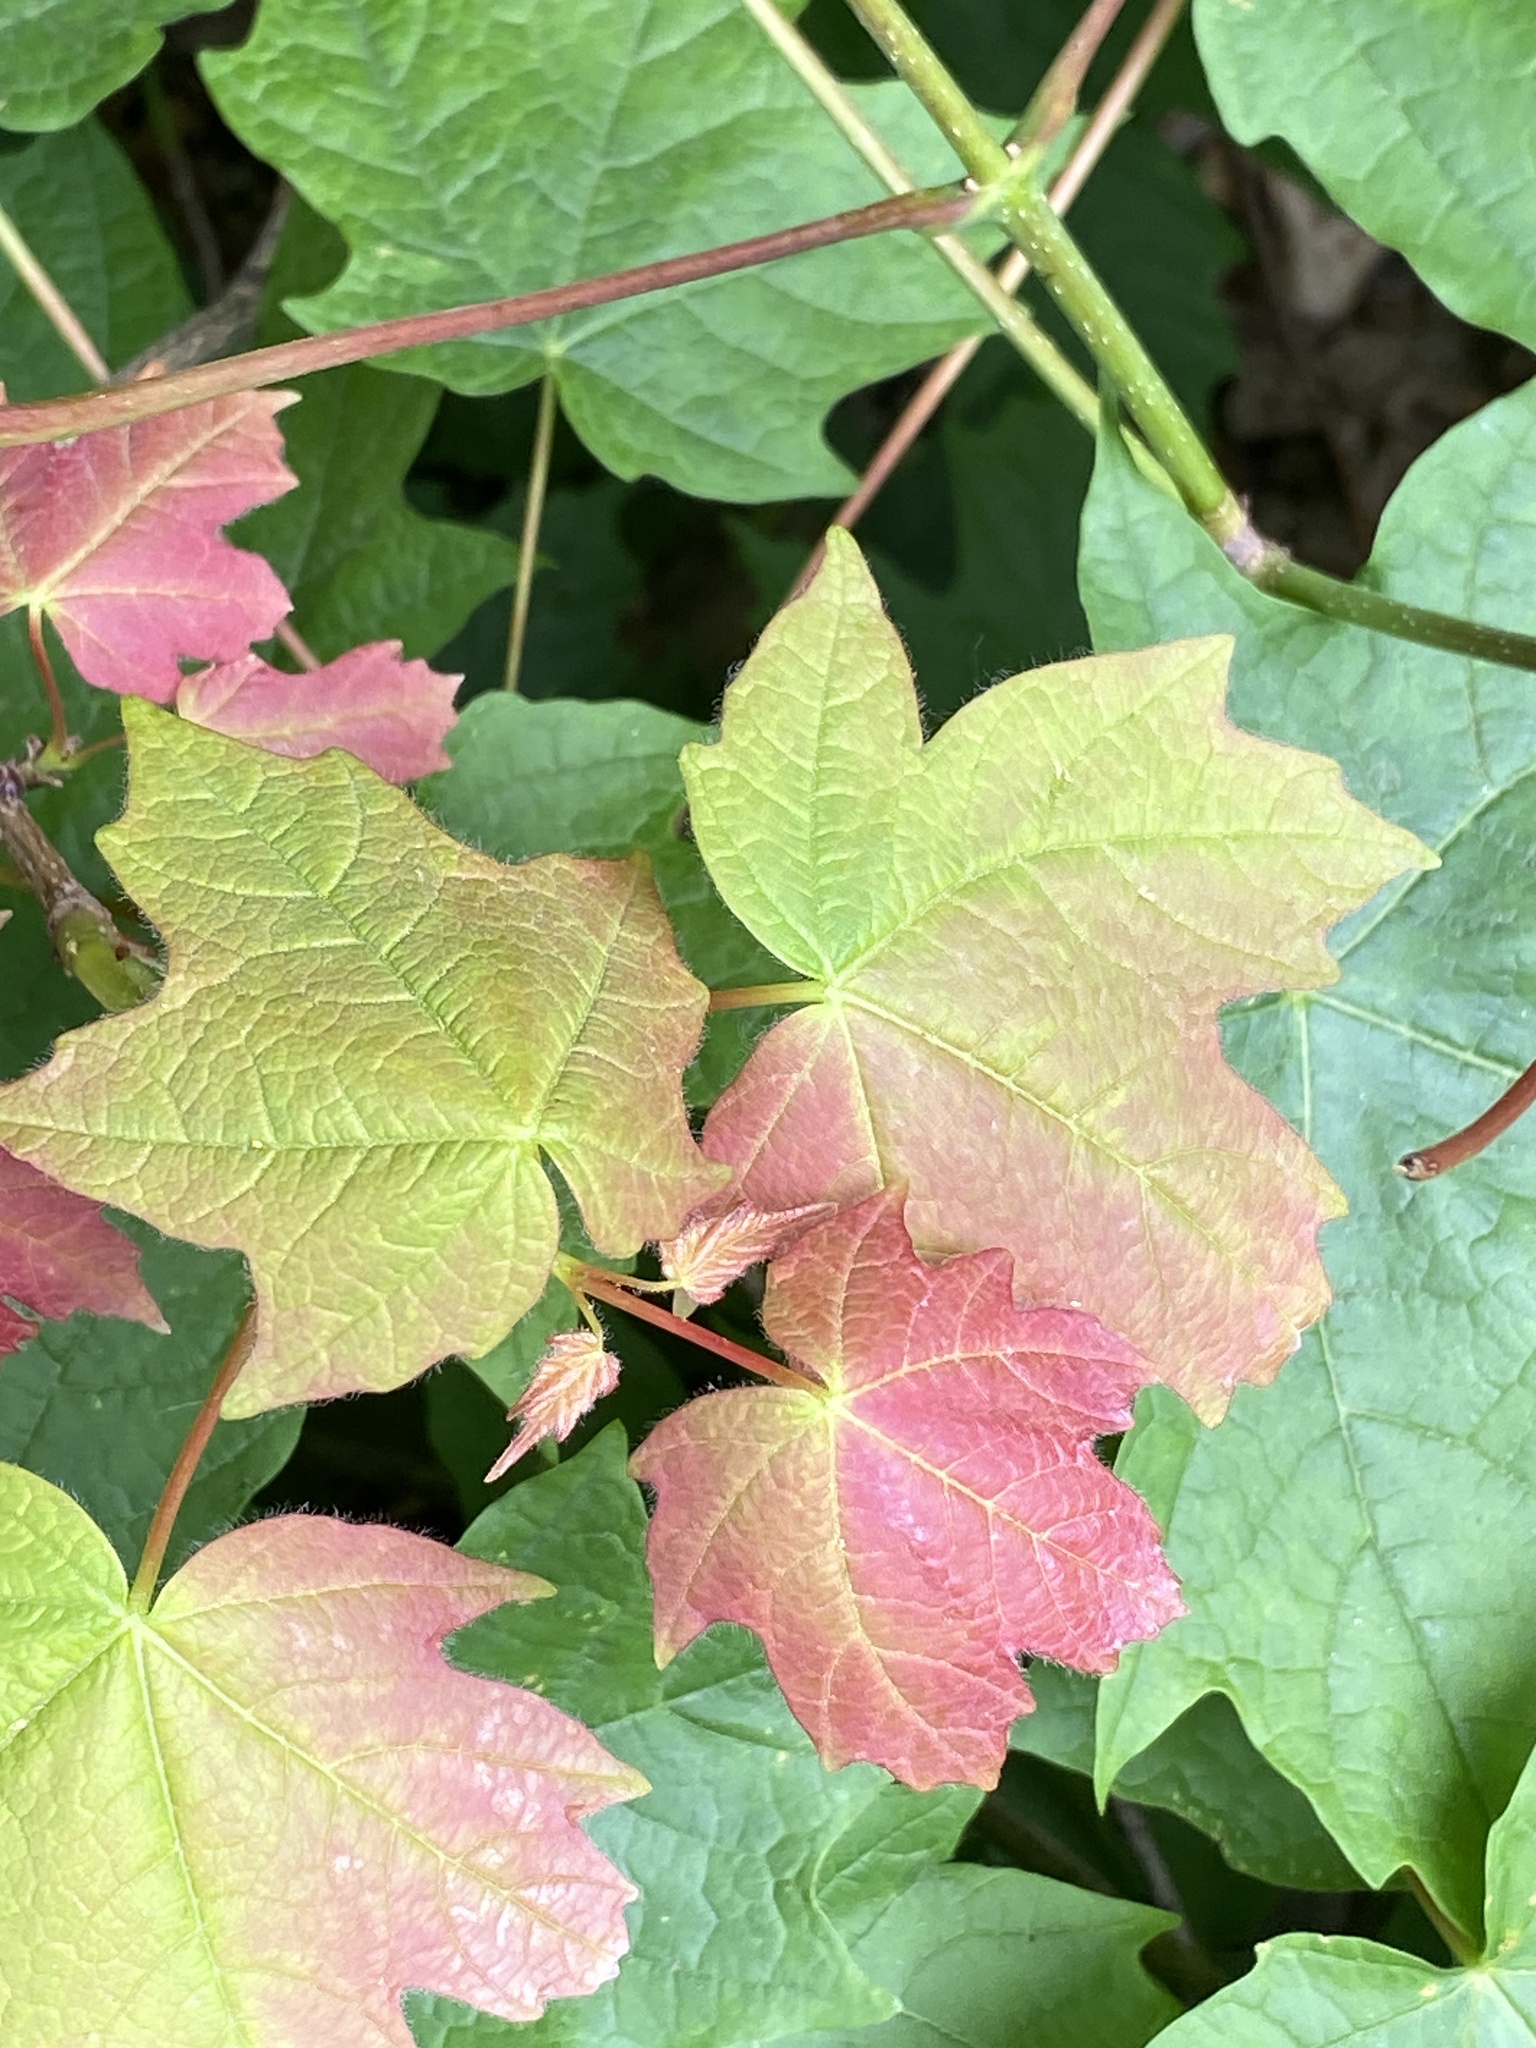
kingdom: Plantae
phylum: Tracheophyta
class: Magnoliopsida
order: Sapindales
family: Sapindaceae
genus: Acer
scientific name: Acer saccharum
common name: Sugar maple
